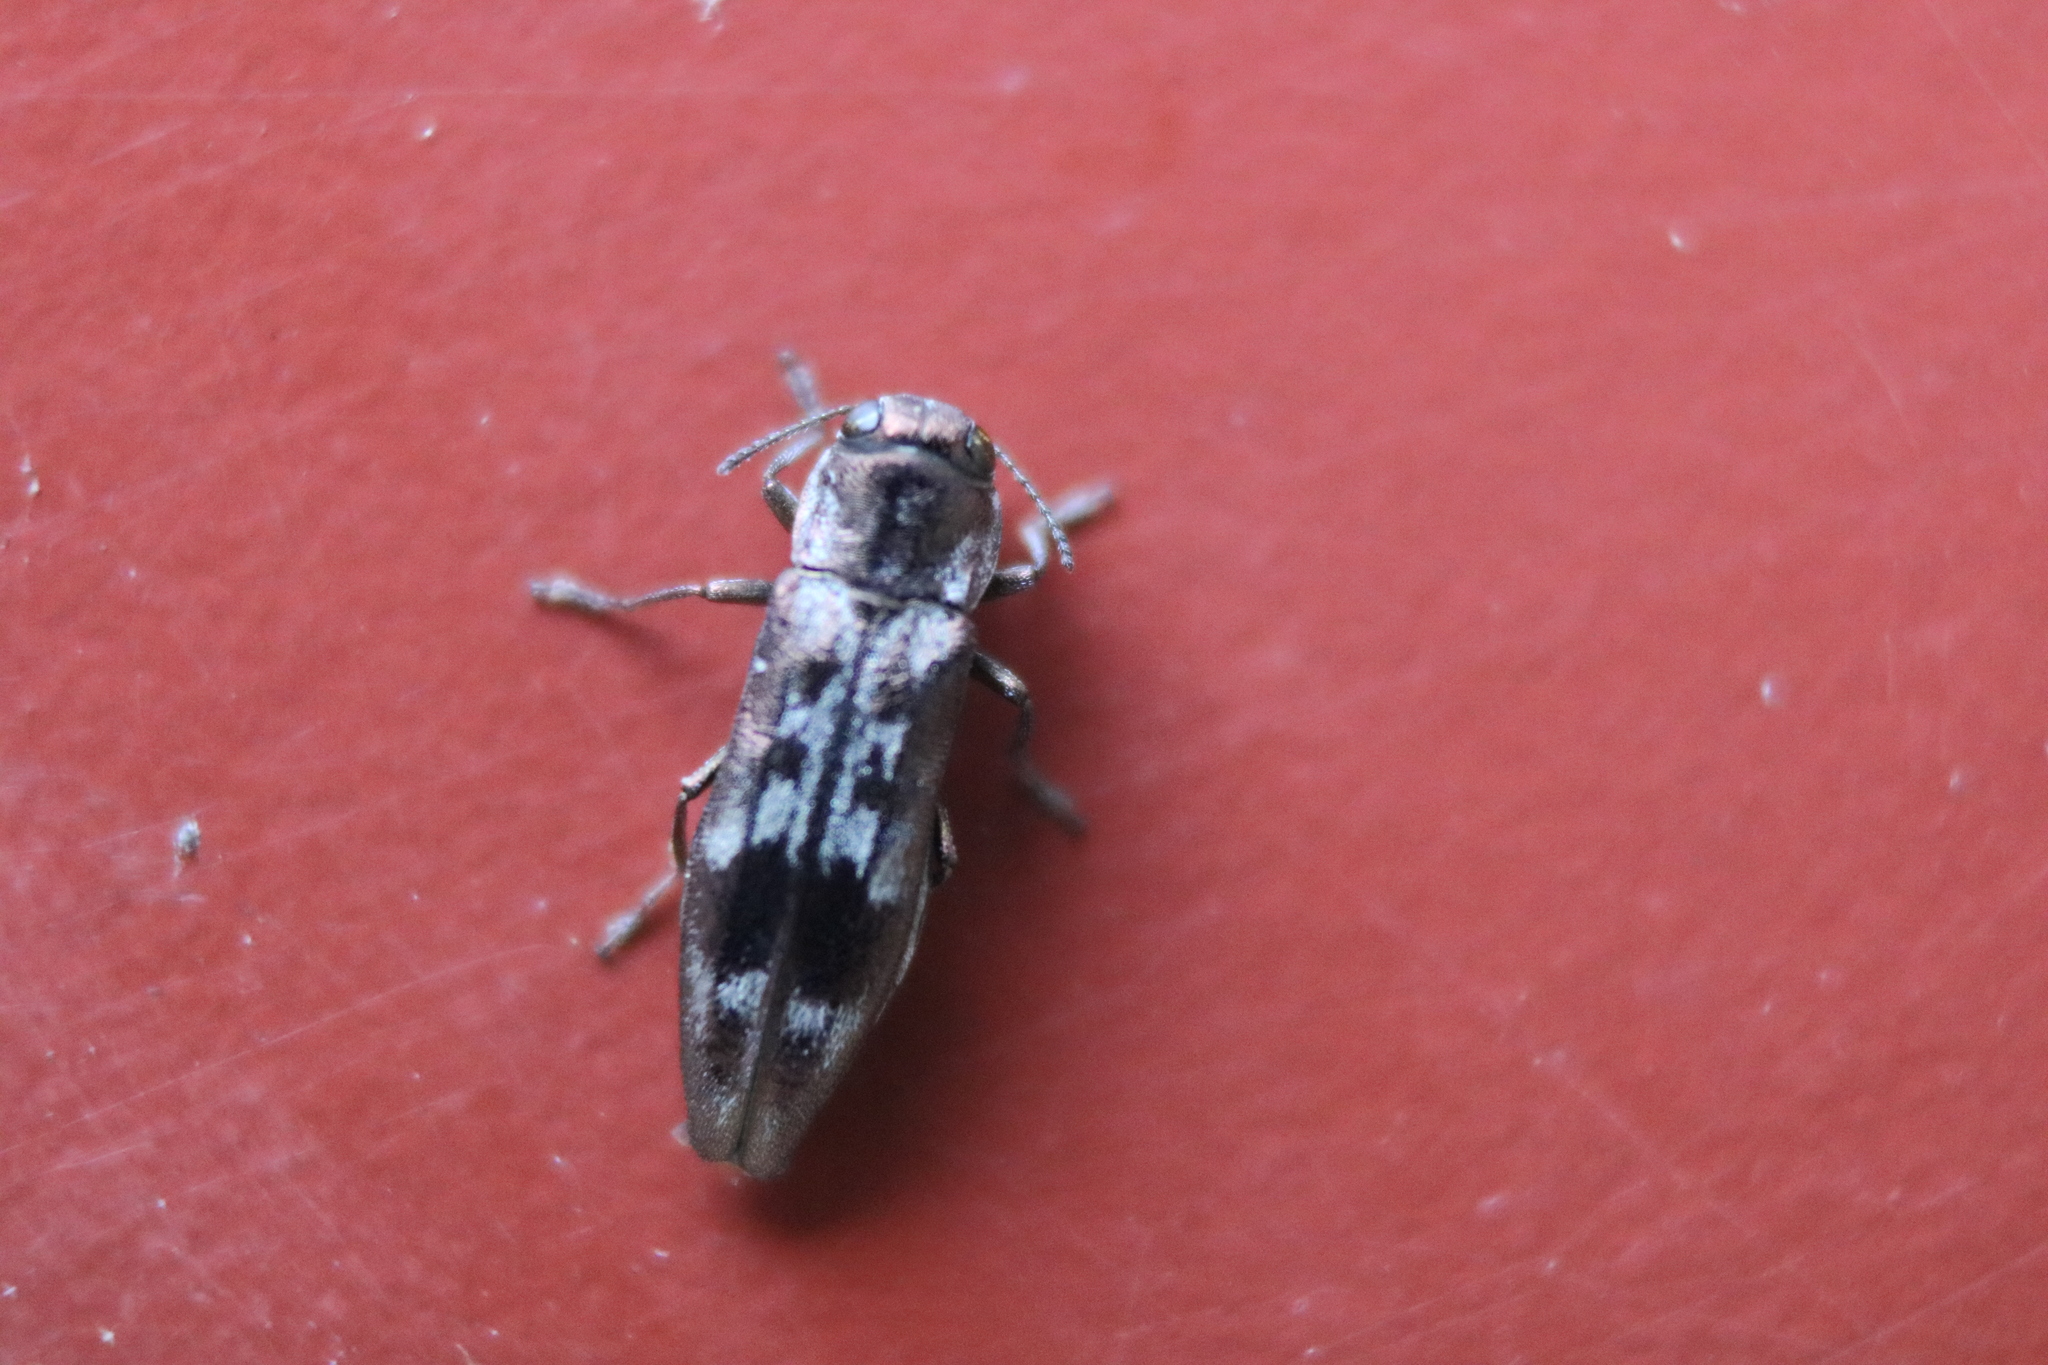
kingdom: Animalia
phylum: Arthropoda
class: Insecta
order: Coleoptera
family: Buprestidae
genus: Agrilus
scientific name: Agrilus lecontei
